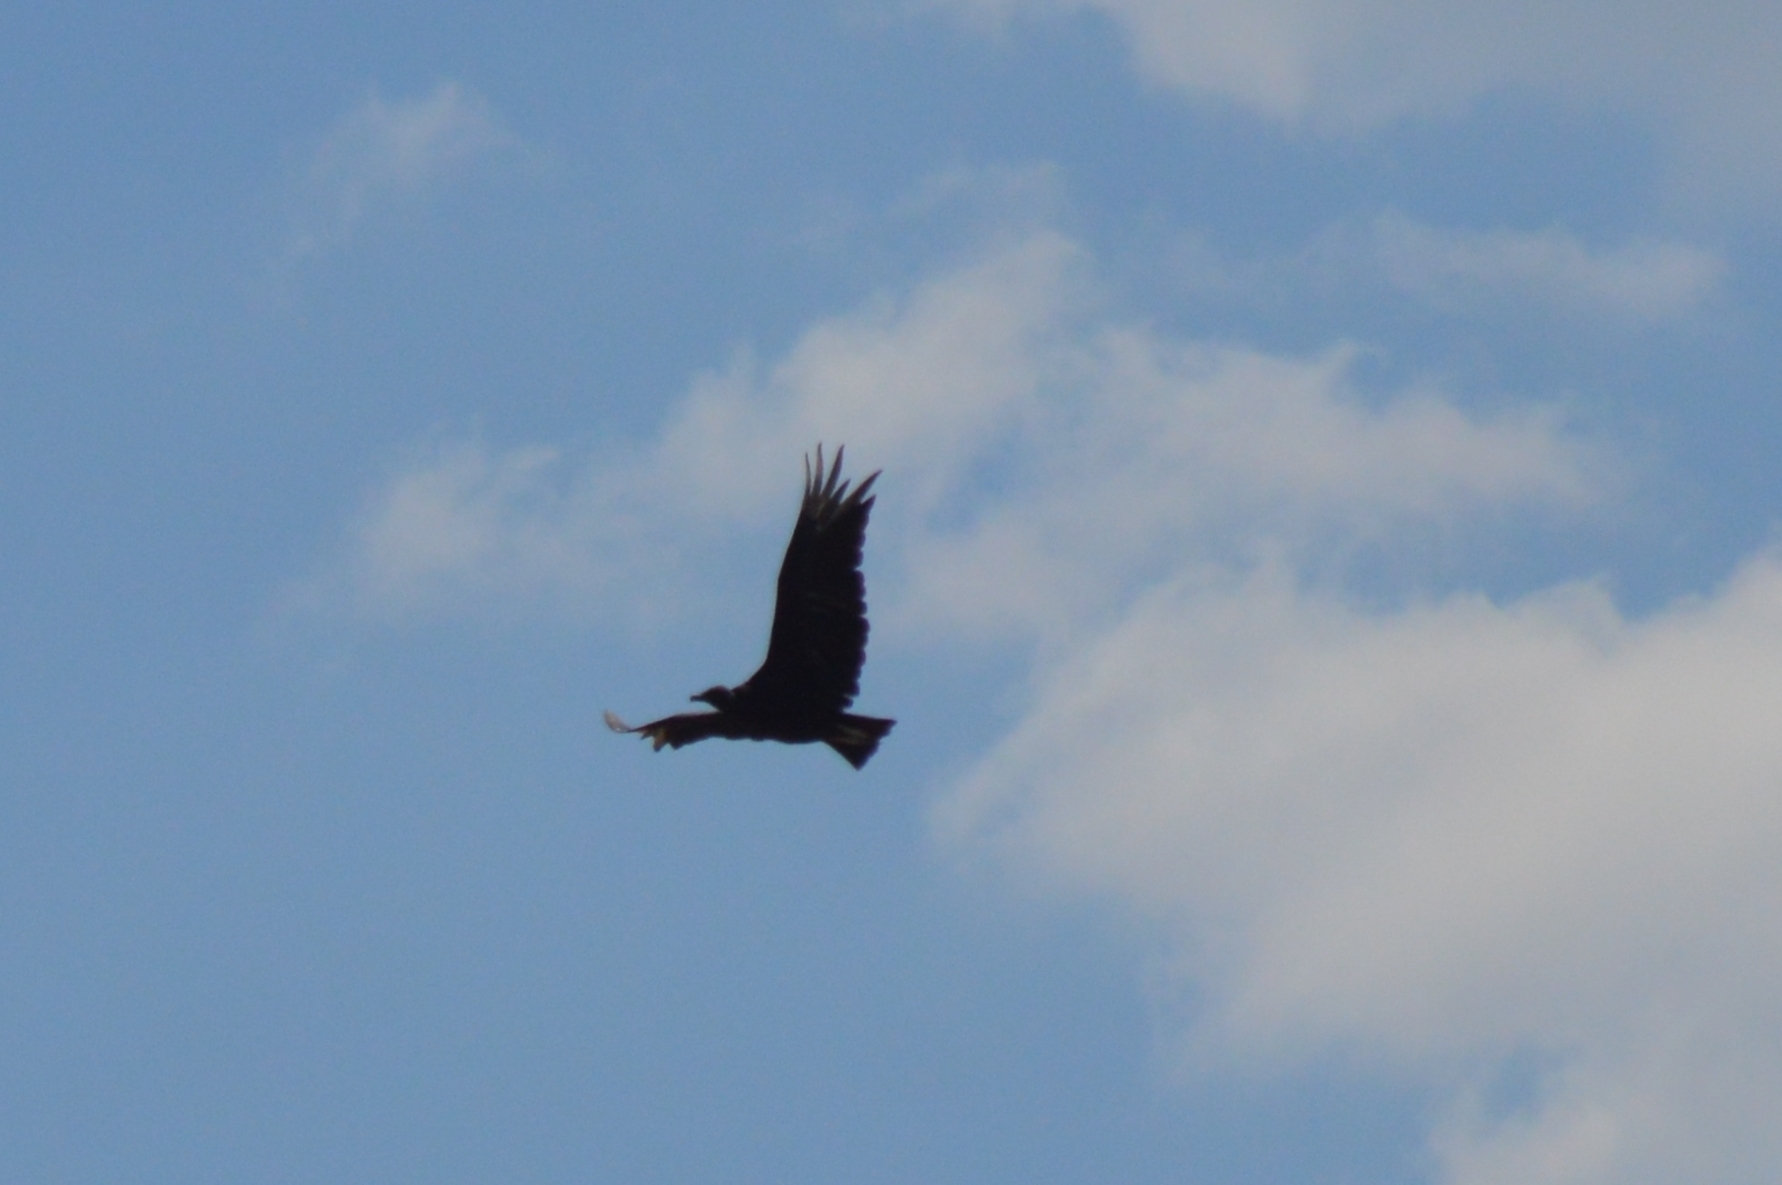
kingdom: Animalia
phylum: Chordata
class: Aves
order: Accipitriformes
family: Cathartidae
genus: Coragyps
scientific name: Coragyps atratus
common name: Black vulture
